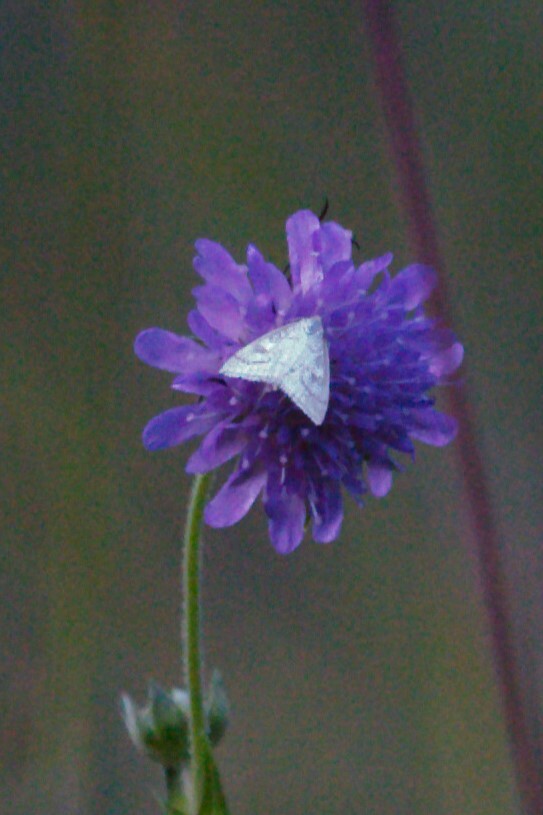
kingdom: Animalia
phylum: Arthropoda
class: Insecta
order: Lepidoptera
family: Crambidae
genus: Udea
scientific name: Udea lutealis
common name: Pale straw pearl
